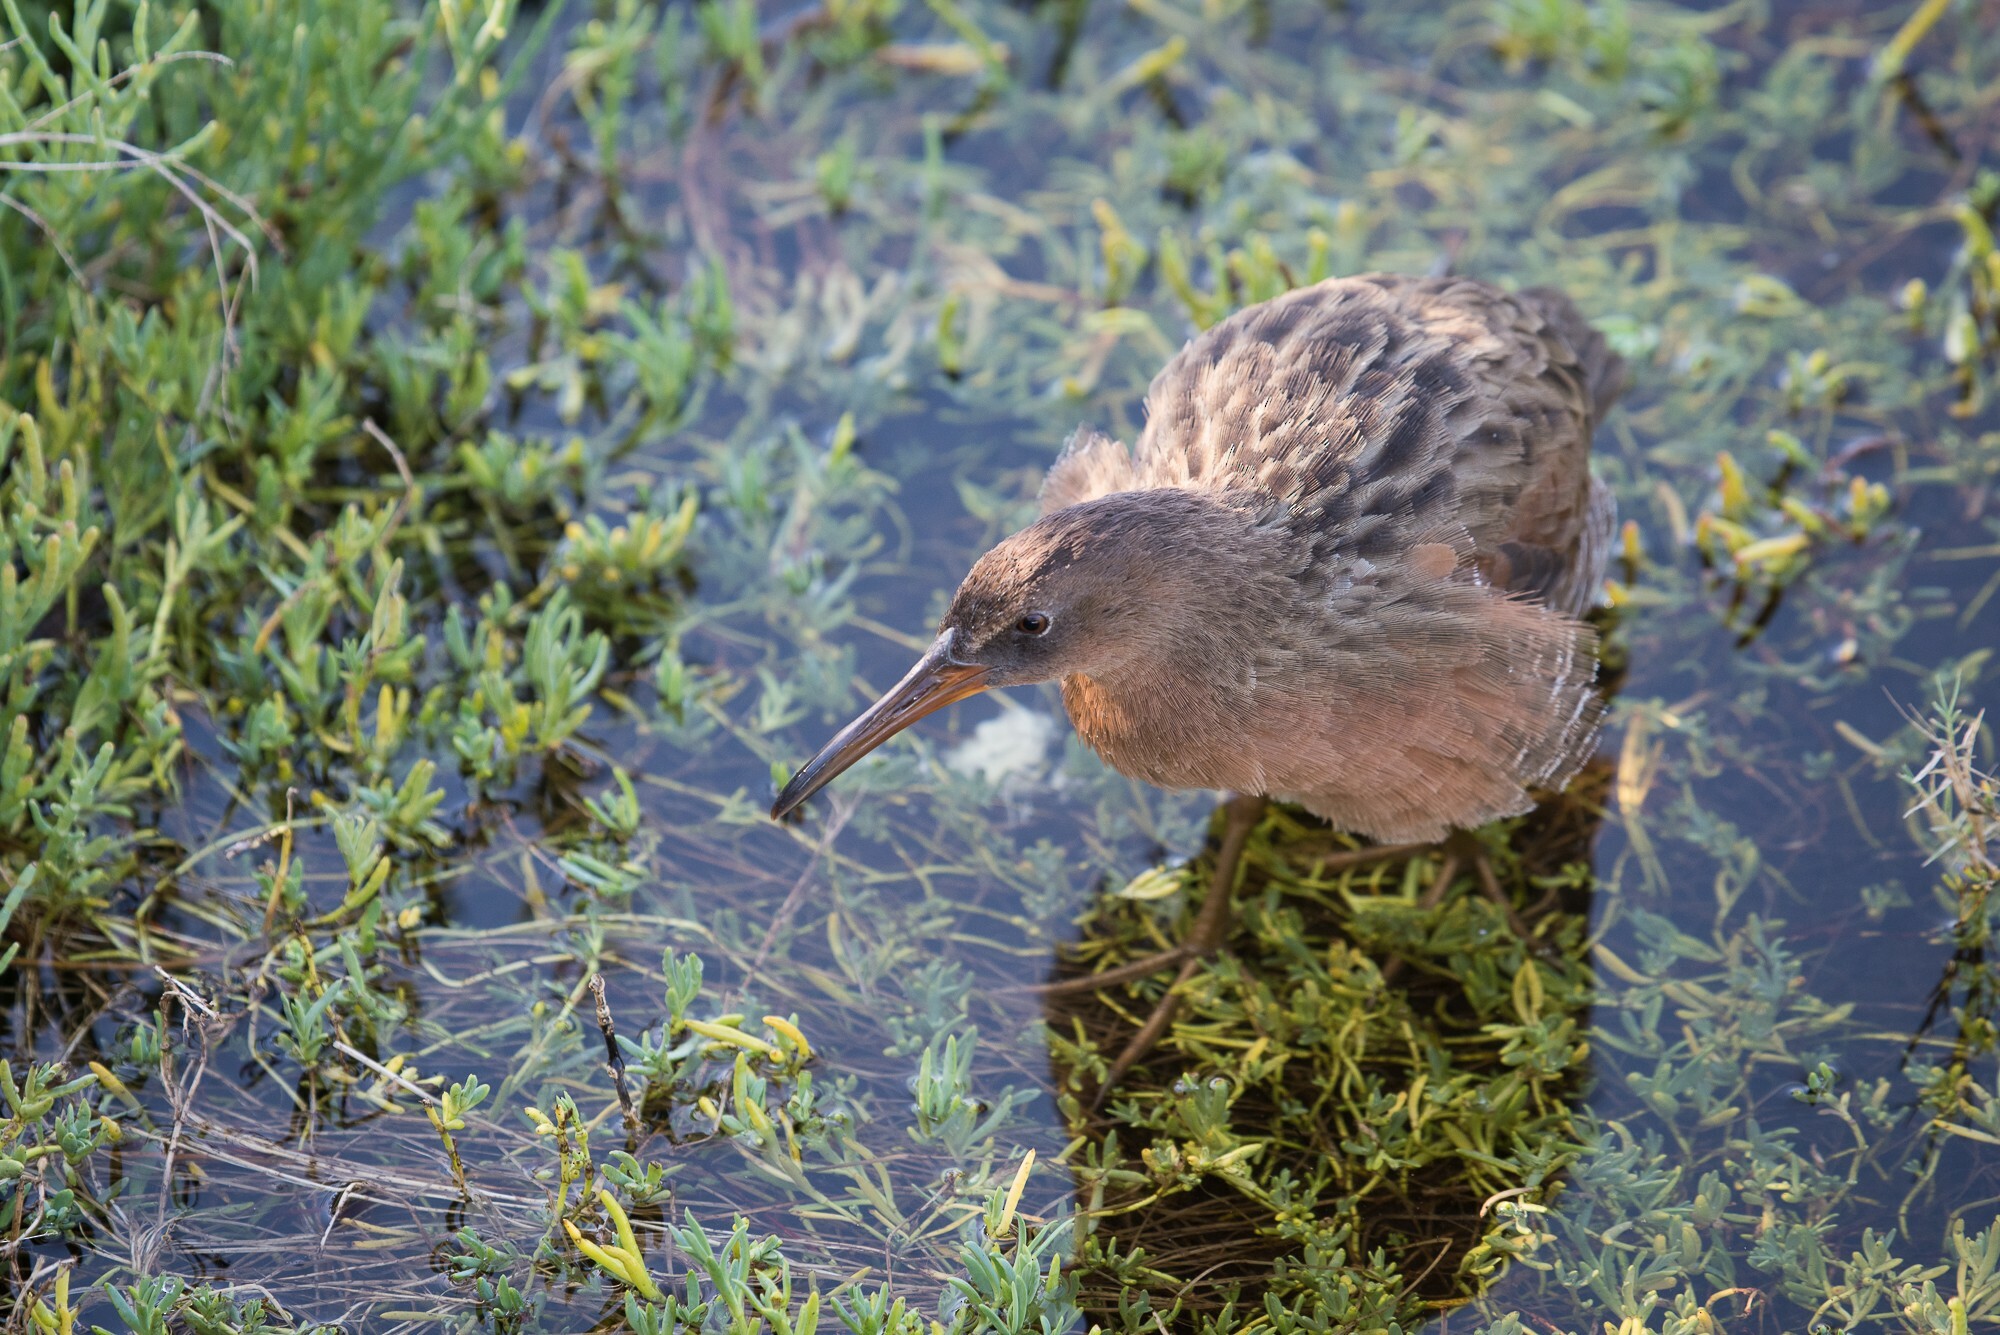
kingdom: Animalia
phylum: Chordata
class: Aves
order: Gruiformes
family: Rallidae
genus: Rallus
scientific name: Rallus obsoletus
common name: Ridgway's rail
